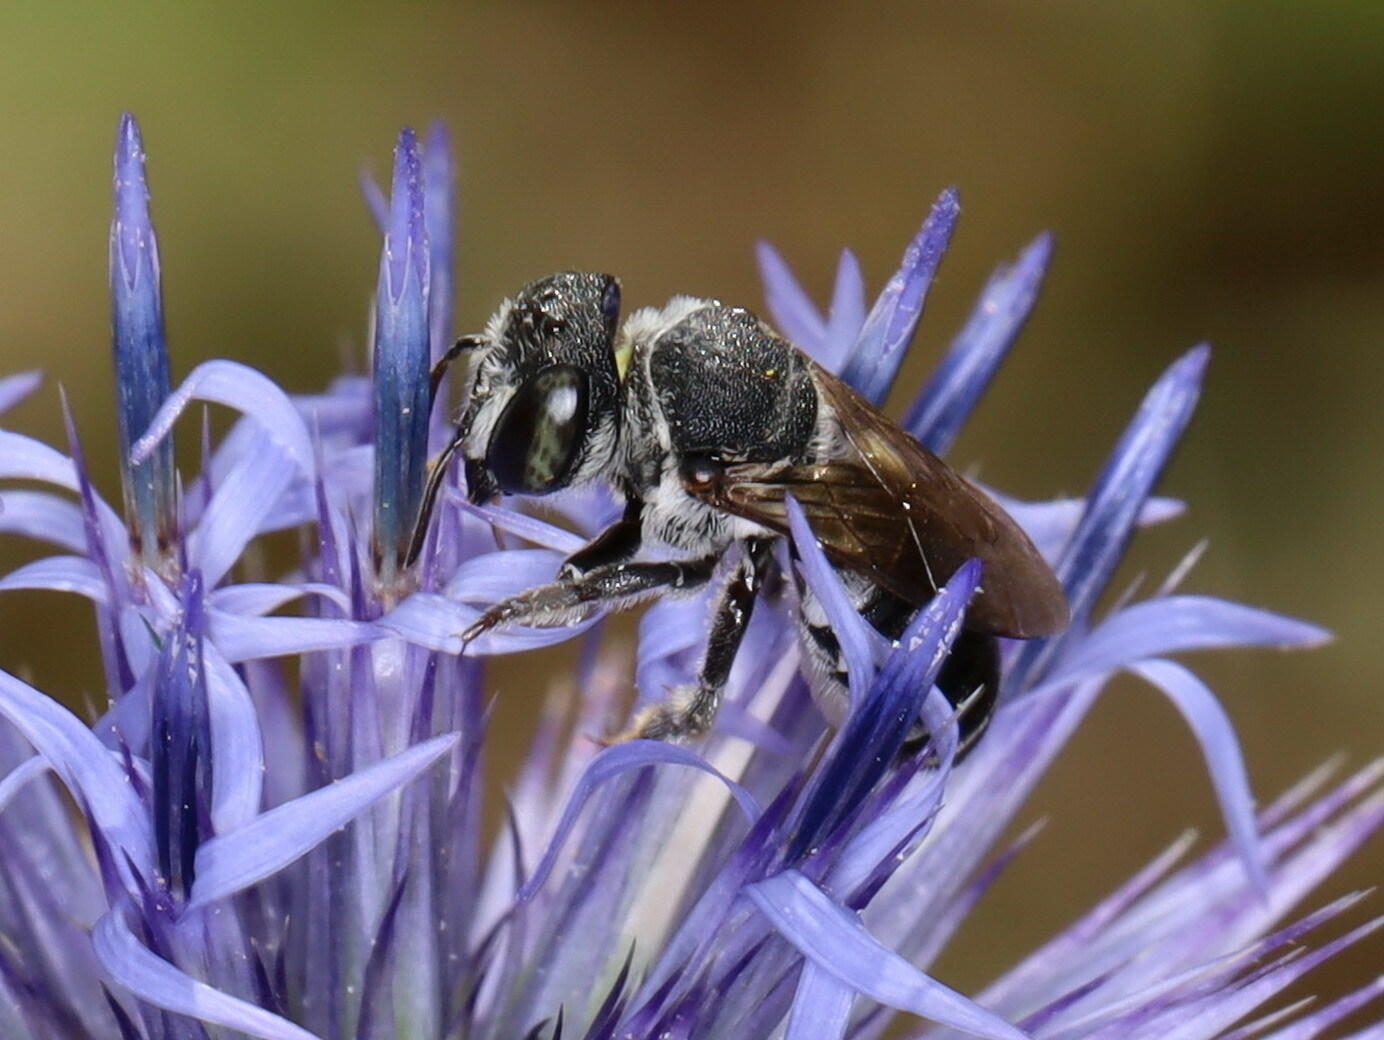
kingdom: Animalia
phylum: Arthropoda
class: Insecta
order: Hymenoptera
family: Megachilidae
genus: Megachile
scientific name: Megachile apicalis
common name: Apical leafcutter bee
